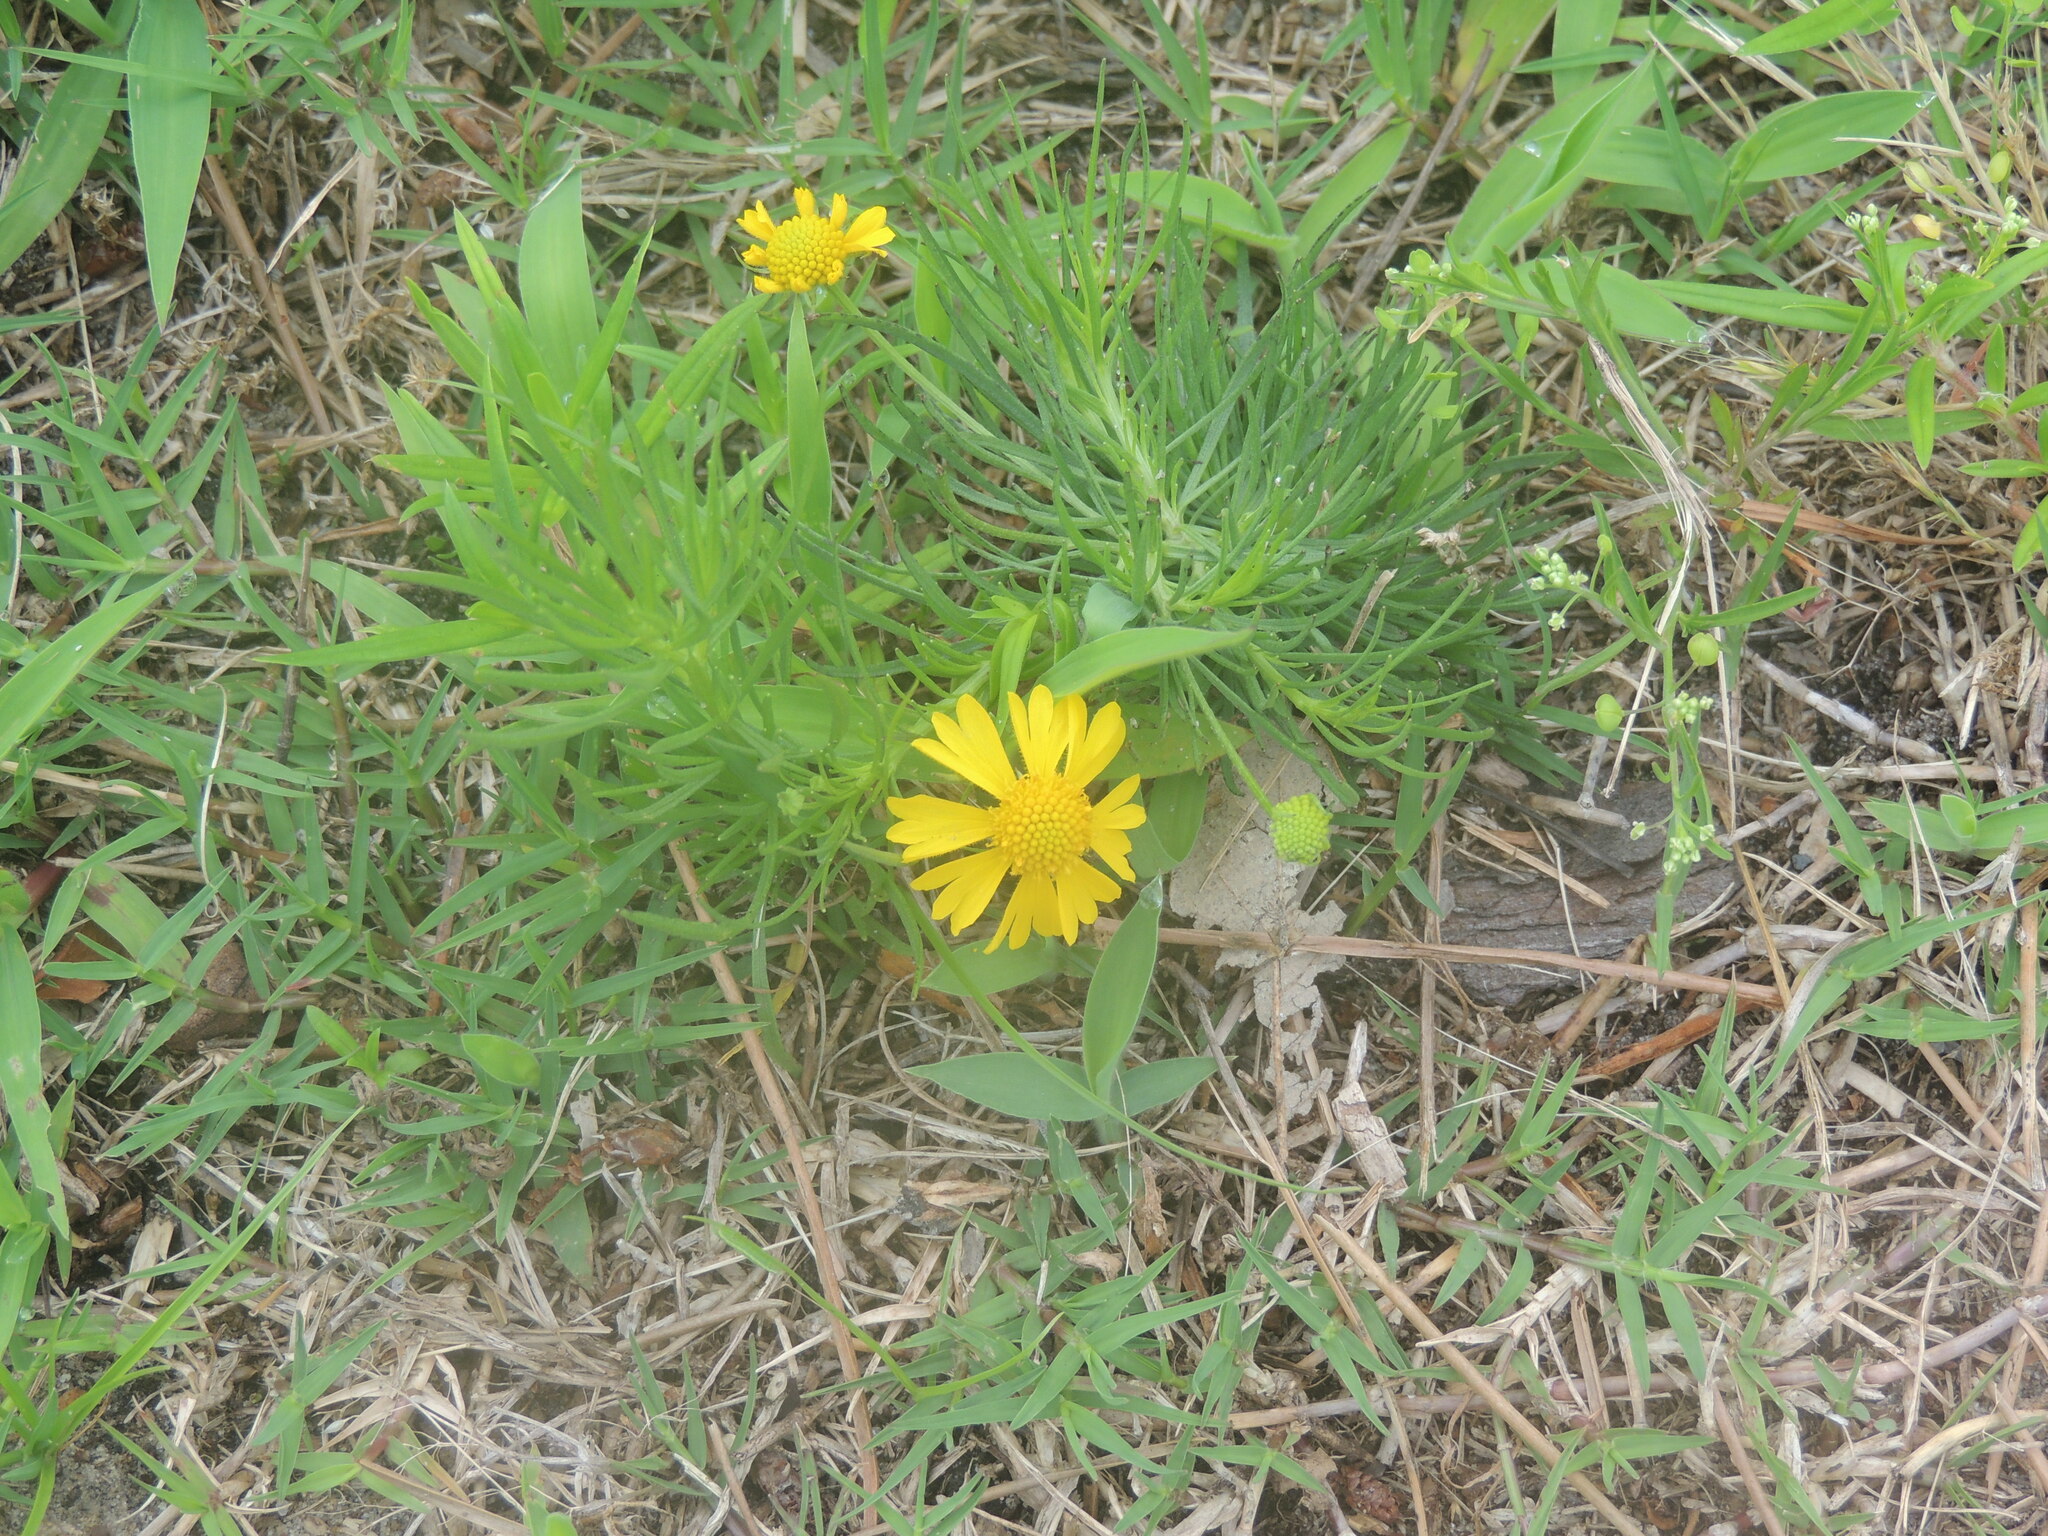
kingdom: Plantae
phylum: Tracheophyta
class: Magnoliopsida
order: Asterales
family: Asteraceae
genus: Helenium
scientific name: Helenium amarum
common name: Bitter sneezeweed
